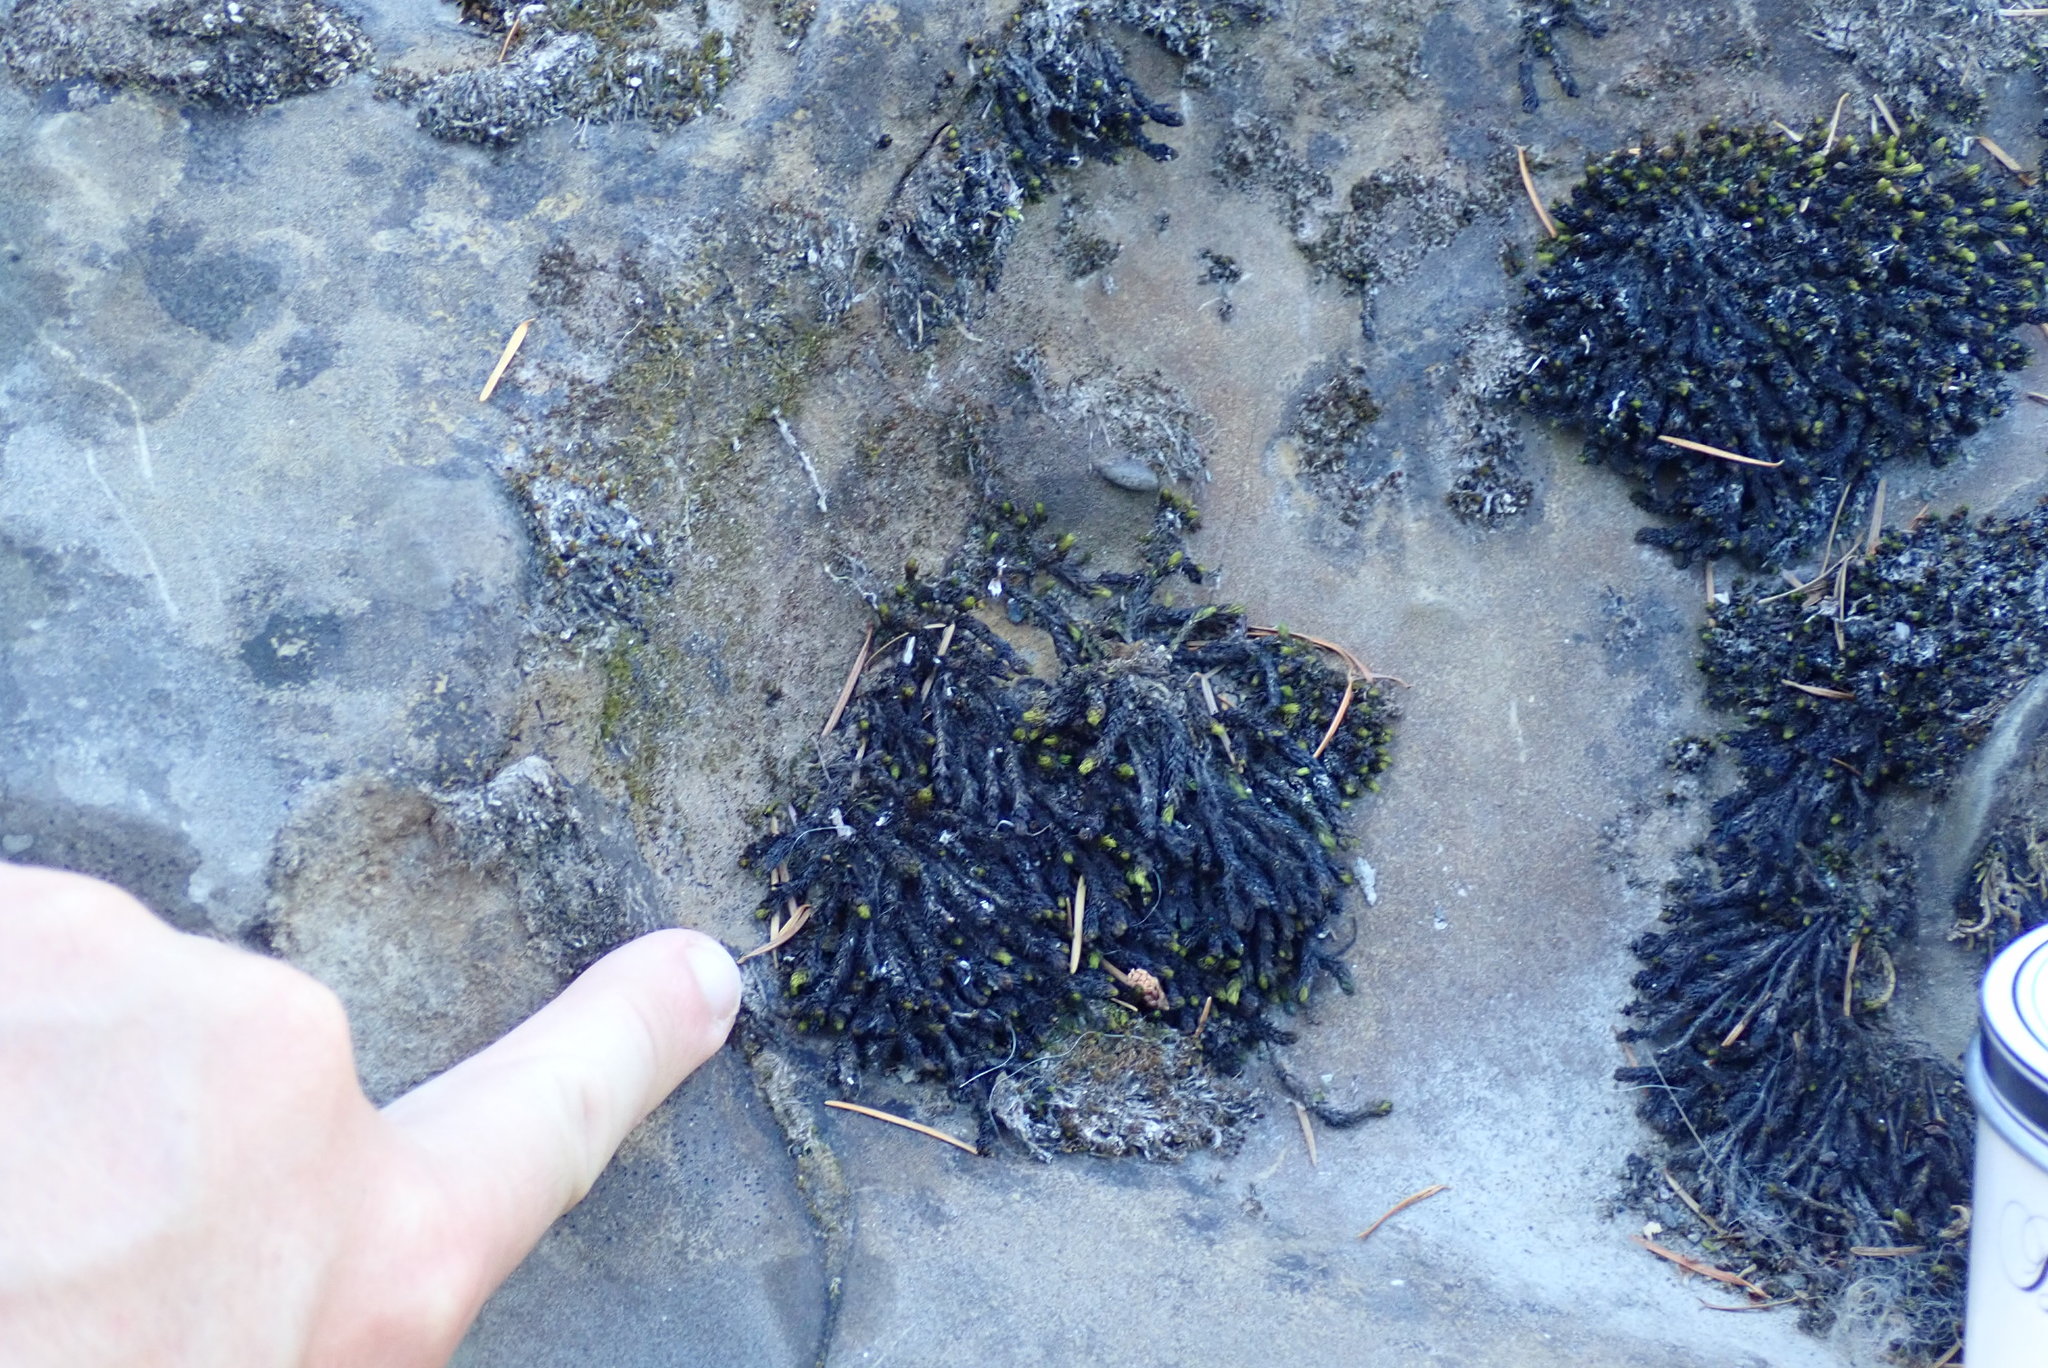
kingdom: Plantae
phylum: Bryophyta
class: Bryopsida
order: Scouleriales
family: Scouleriaceae
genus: Scouleria
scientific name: Scouleria aquatica
